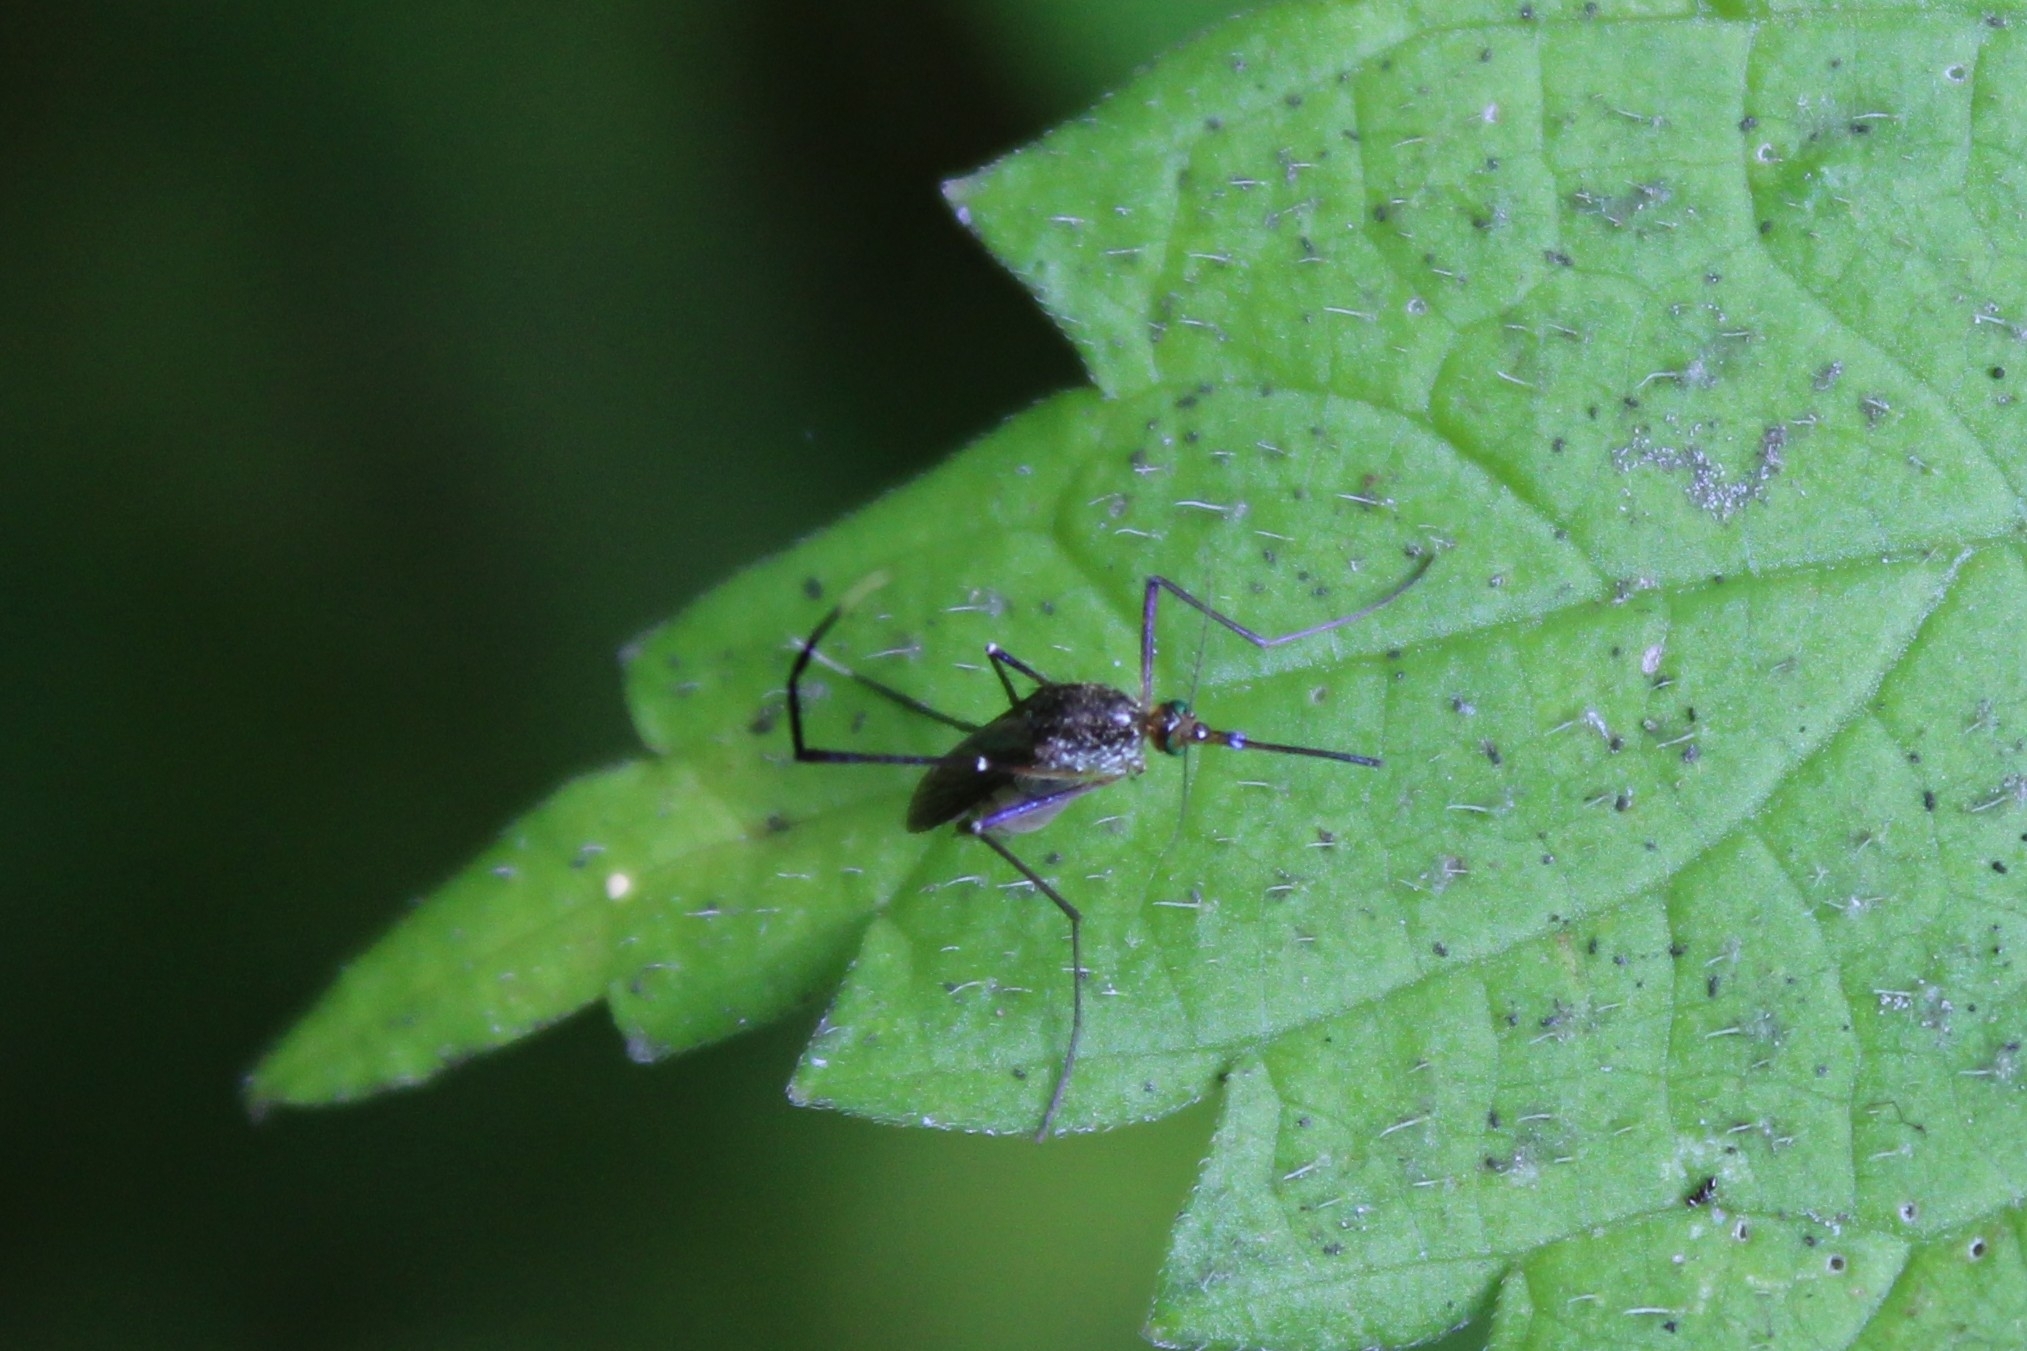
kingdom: Animalia
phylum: Arthropoda
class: Insecta
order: Diptera
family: Culicidae
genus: Psorophora
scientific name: Psorophora ferox
